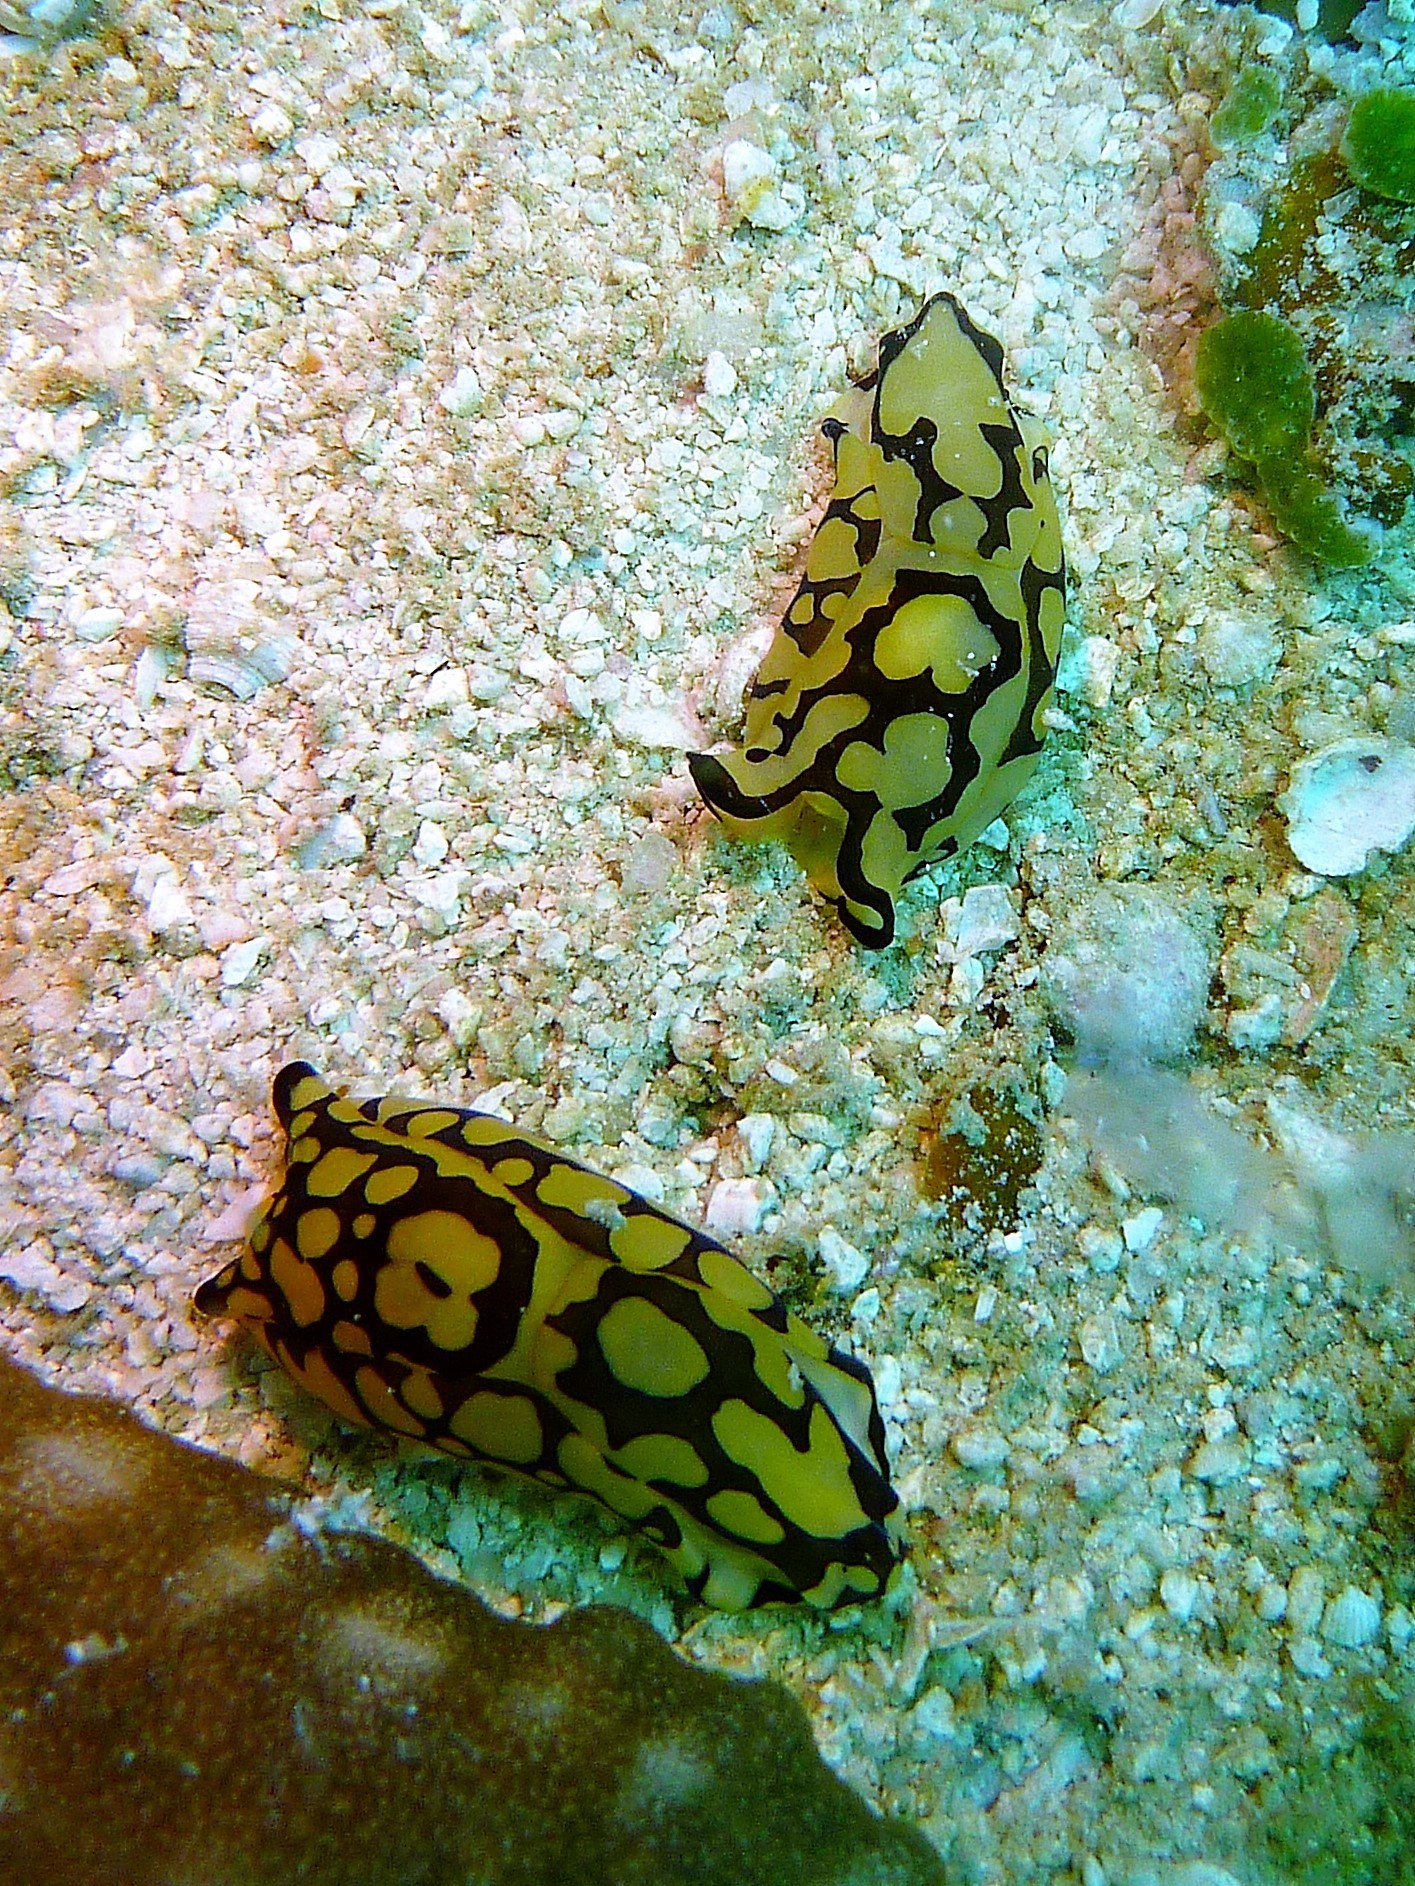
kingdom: Animalia
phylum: Mollusca
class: Gastropoda
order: Cephalaspidea
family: Aglajidae
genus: Tubulophilinopsis
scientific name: Tubulophilinopsis pilsbryi
